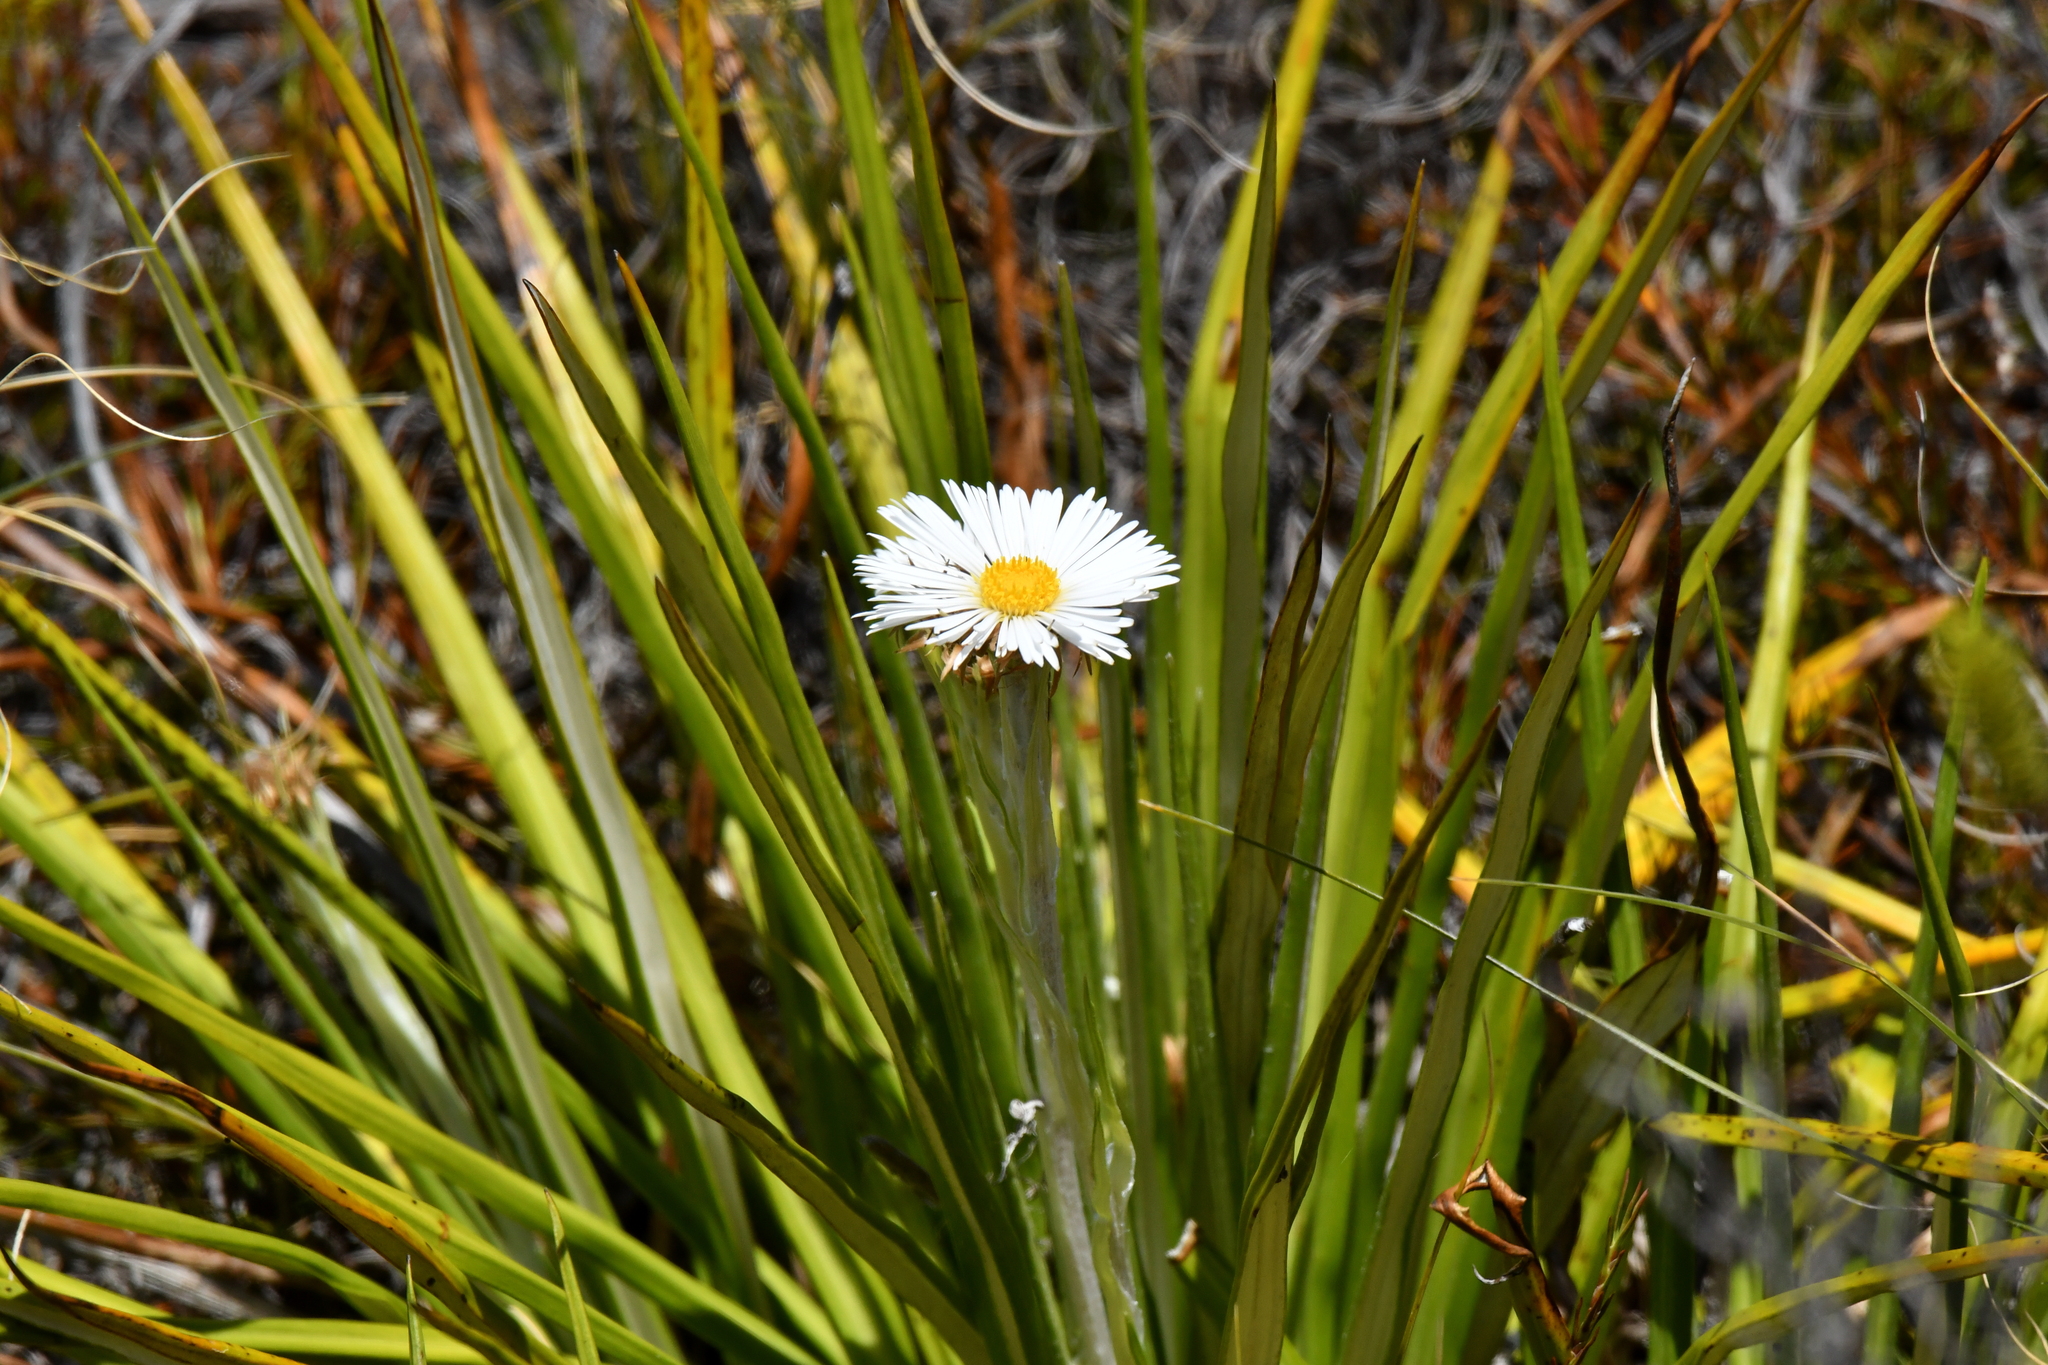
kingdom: Plantae
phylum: Tracheophyta
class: Magnoliopsida
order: Asterales
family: Asteraceae
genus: Celmisia
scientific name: Celmisia petriei
